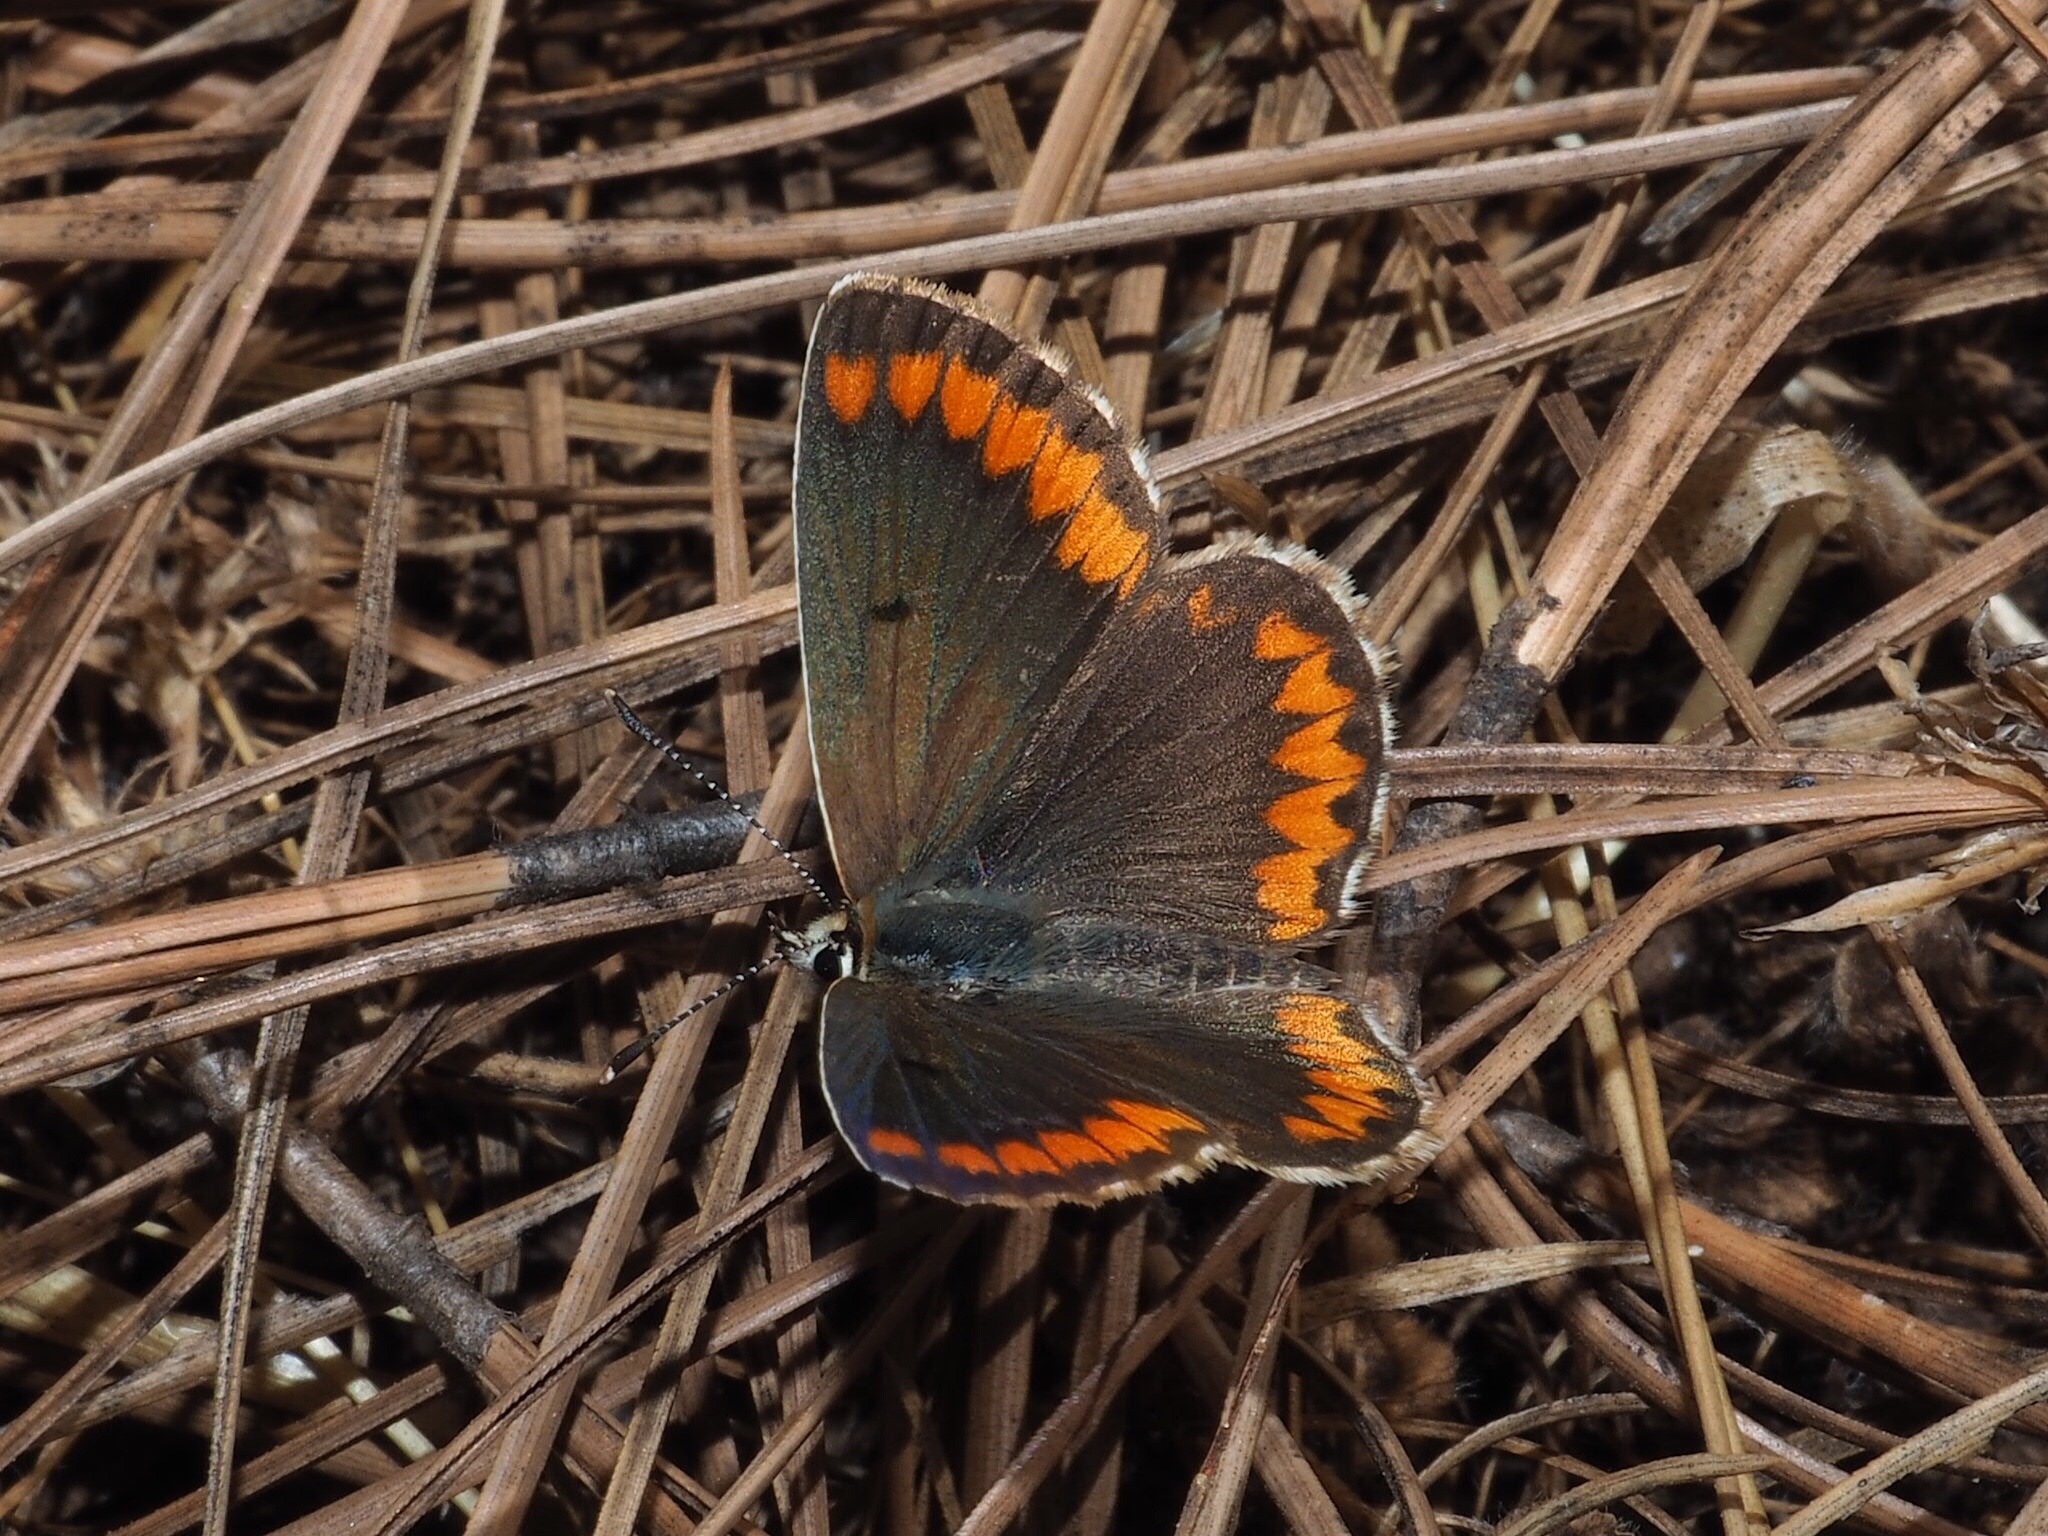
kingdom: Animalia
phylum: Arthropoda
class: Insecta
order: Lepidoptera
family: Lycaenidae
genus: Aricia
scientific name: Aricia cramera
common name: Eschscholtz´s brown  argus
